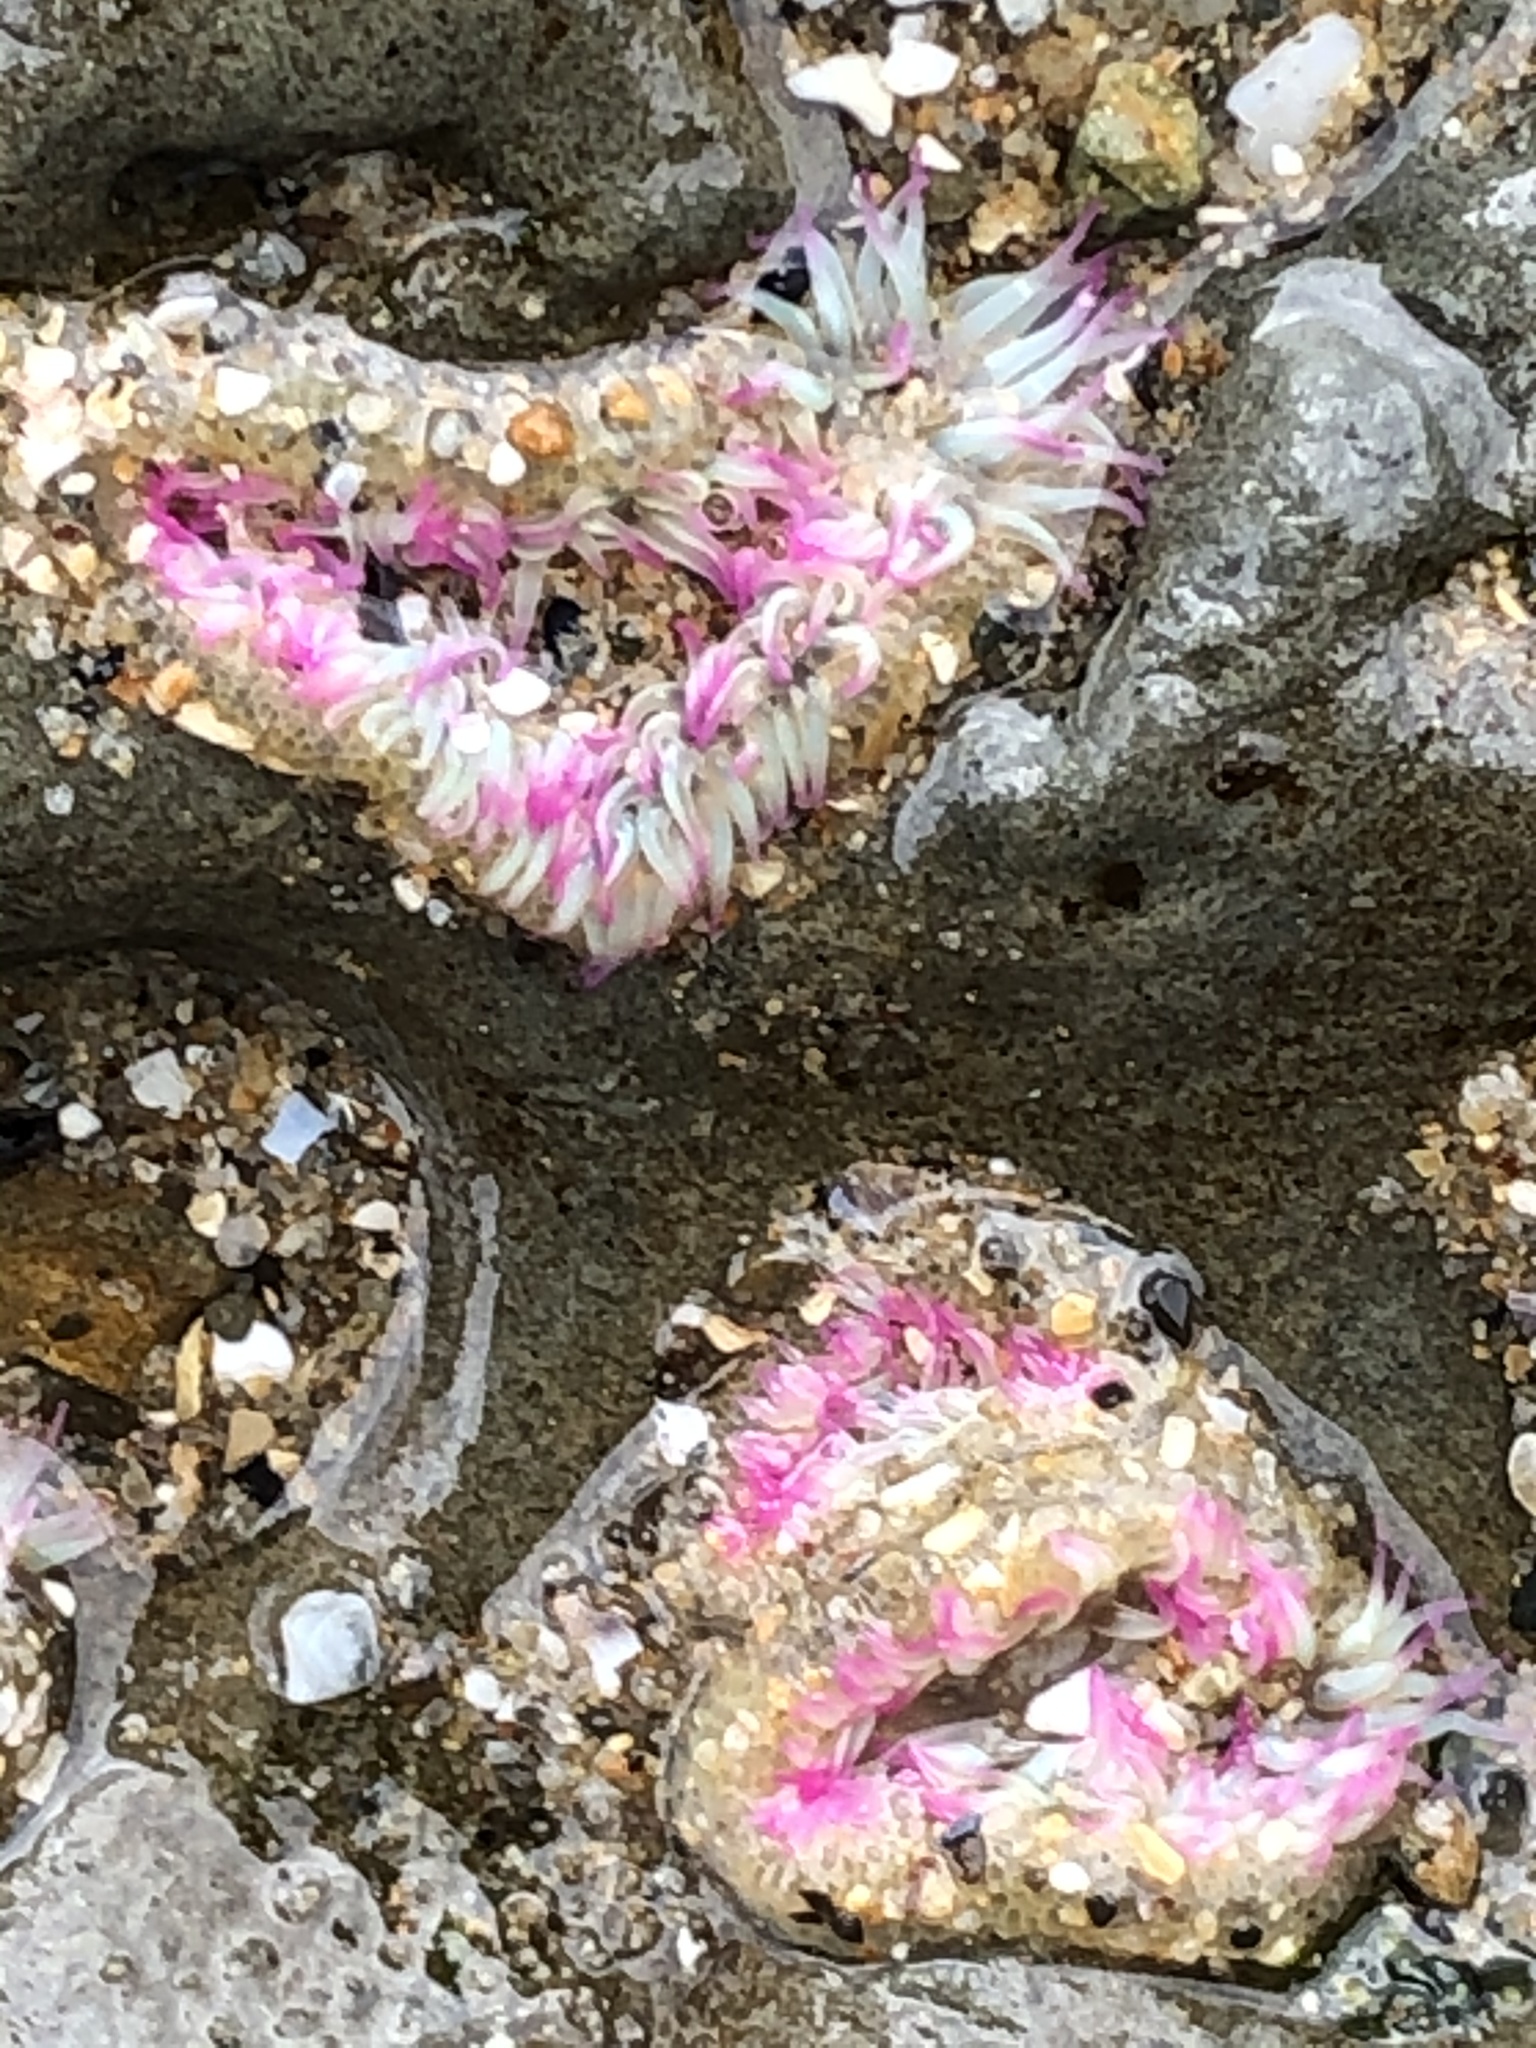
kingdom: Animalia
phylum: Cnidaria
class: Anthozoa
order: Actiniaria
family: Actiniidae
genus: Anthopleura
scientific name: Anthopleura elegantissima
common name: Clonal anemone
